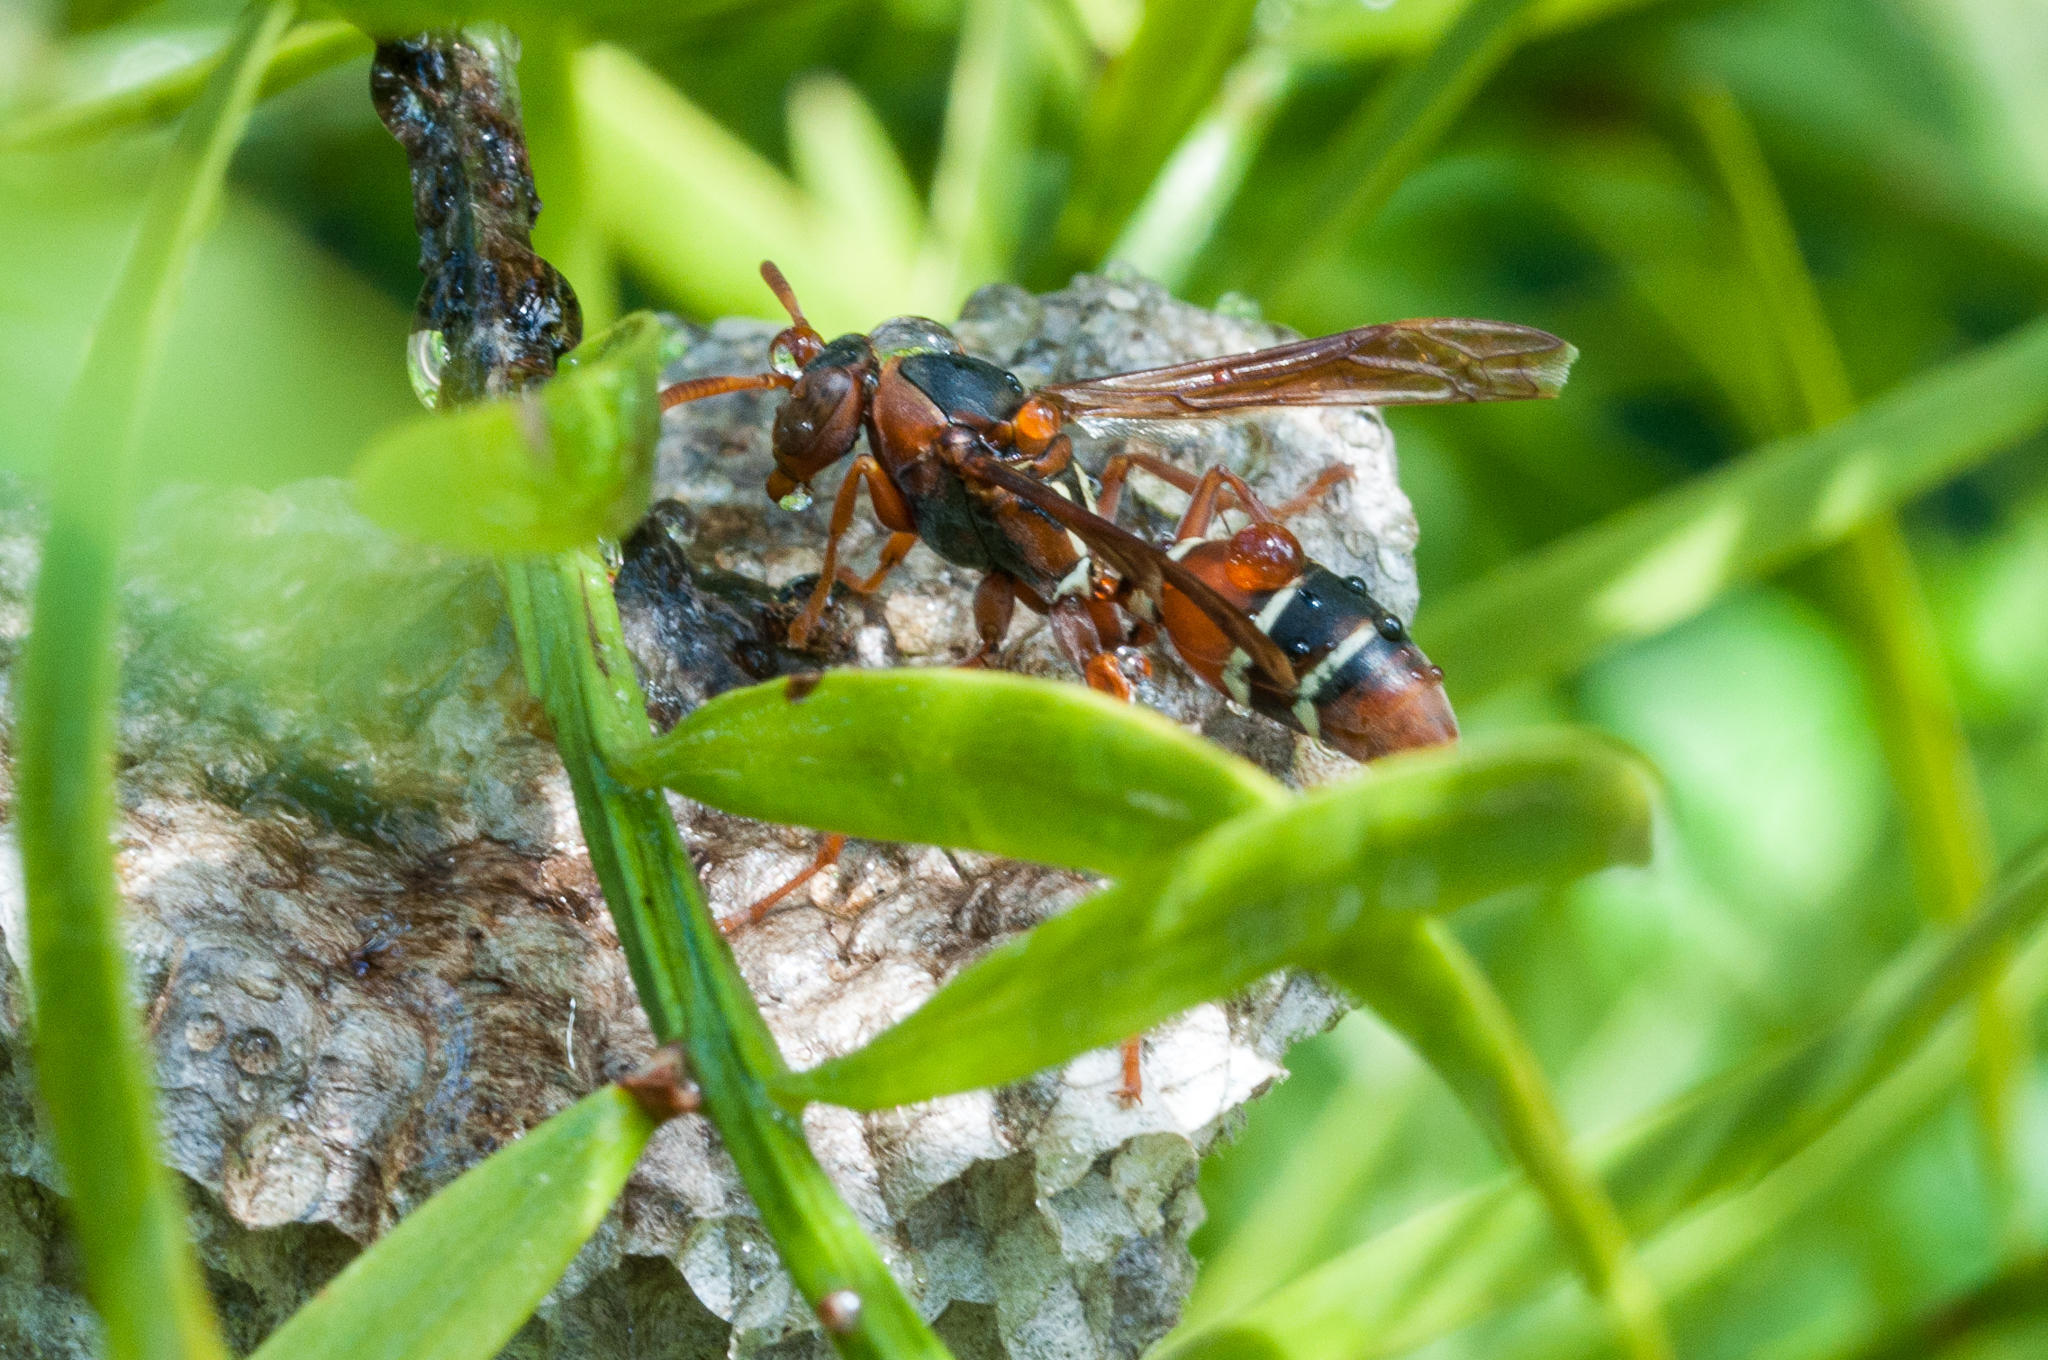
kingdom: Animalia
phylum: Arthropoda
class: Insecta
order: Hymenoptera
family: Eumenidae
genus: Polistes
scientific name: Polistes marginalis
